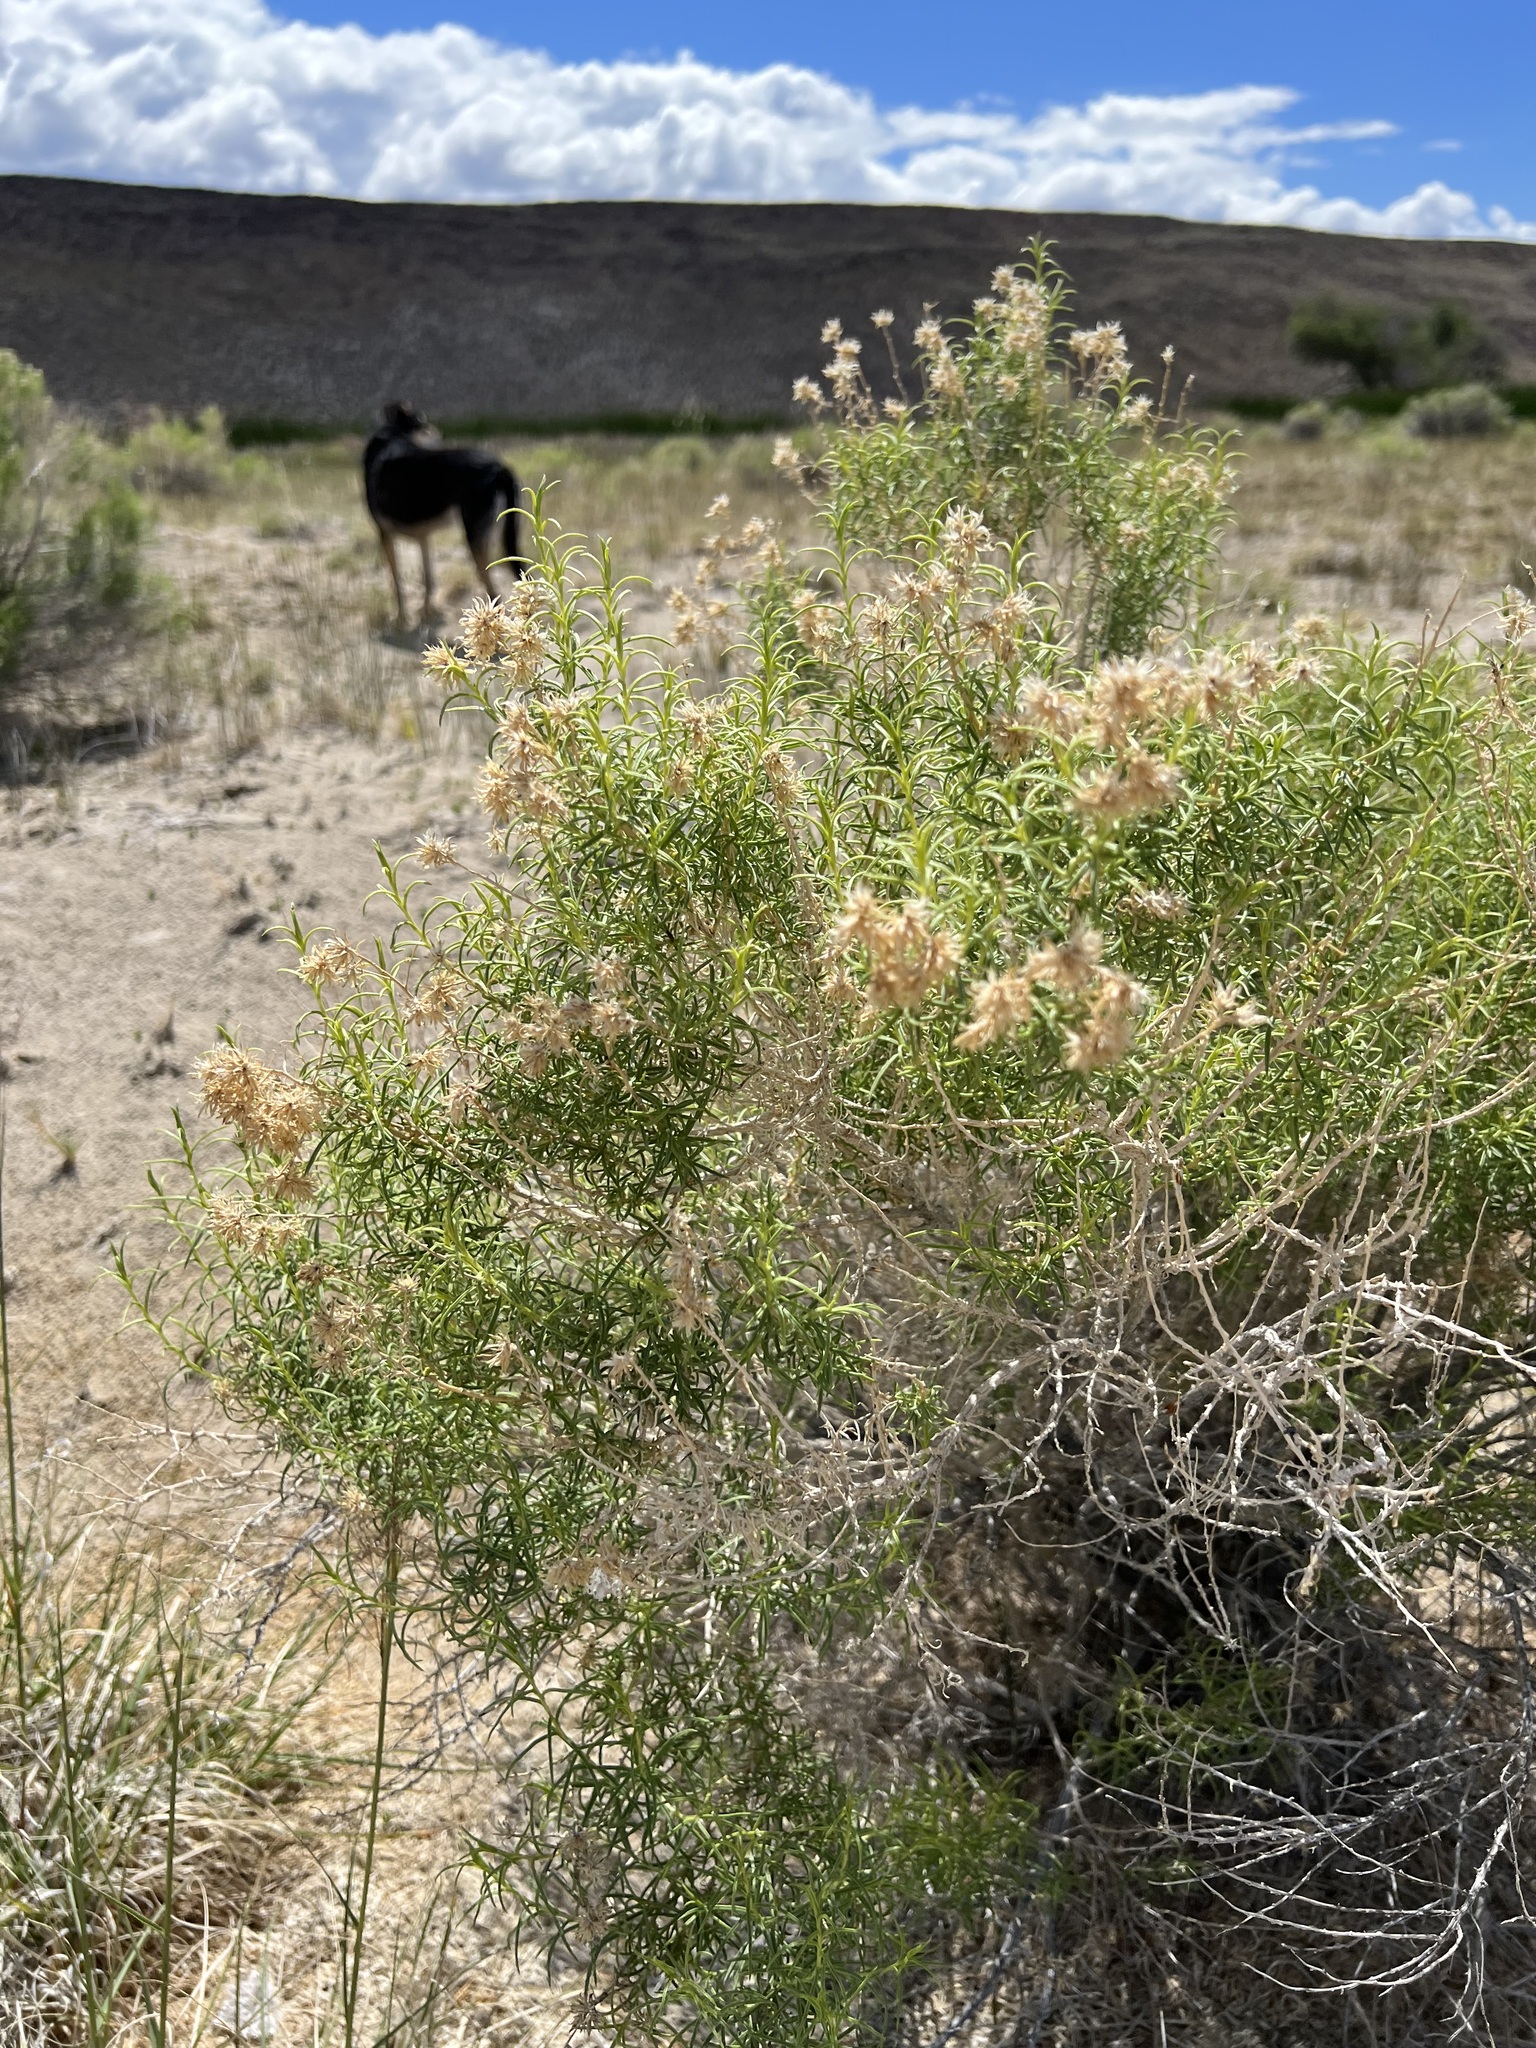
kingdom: Plantae
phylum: Tracheophyta
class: Magnoliopsida
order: Asterales
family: Asteraceae
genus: Ericameria
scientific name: Ericameria albida
